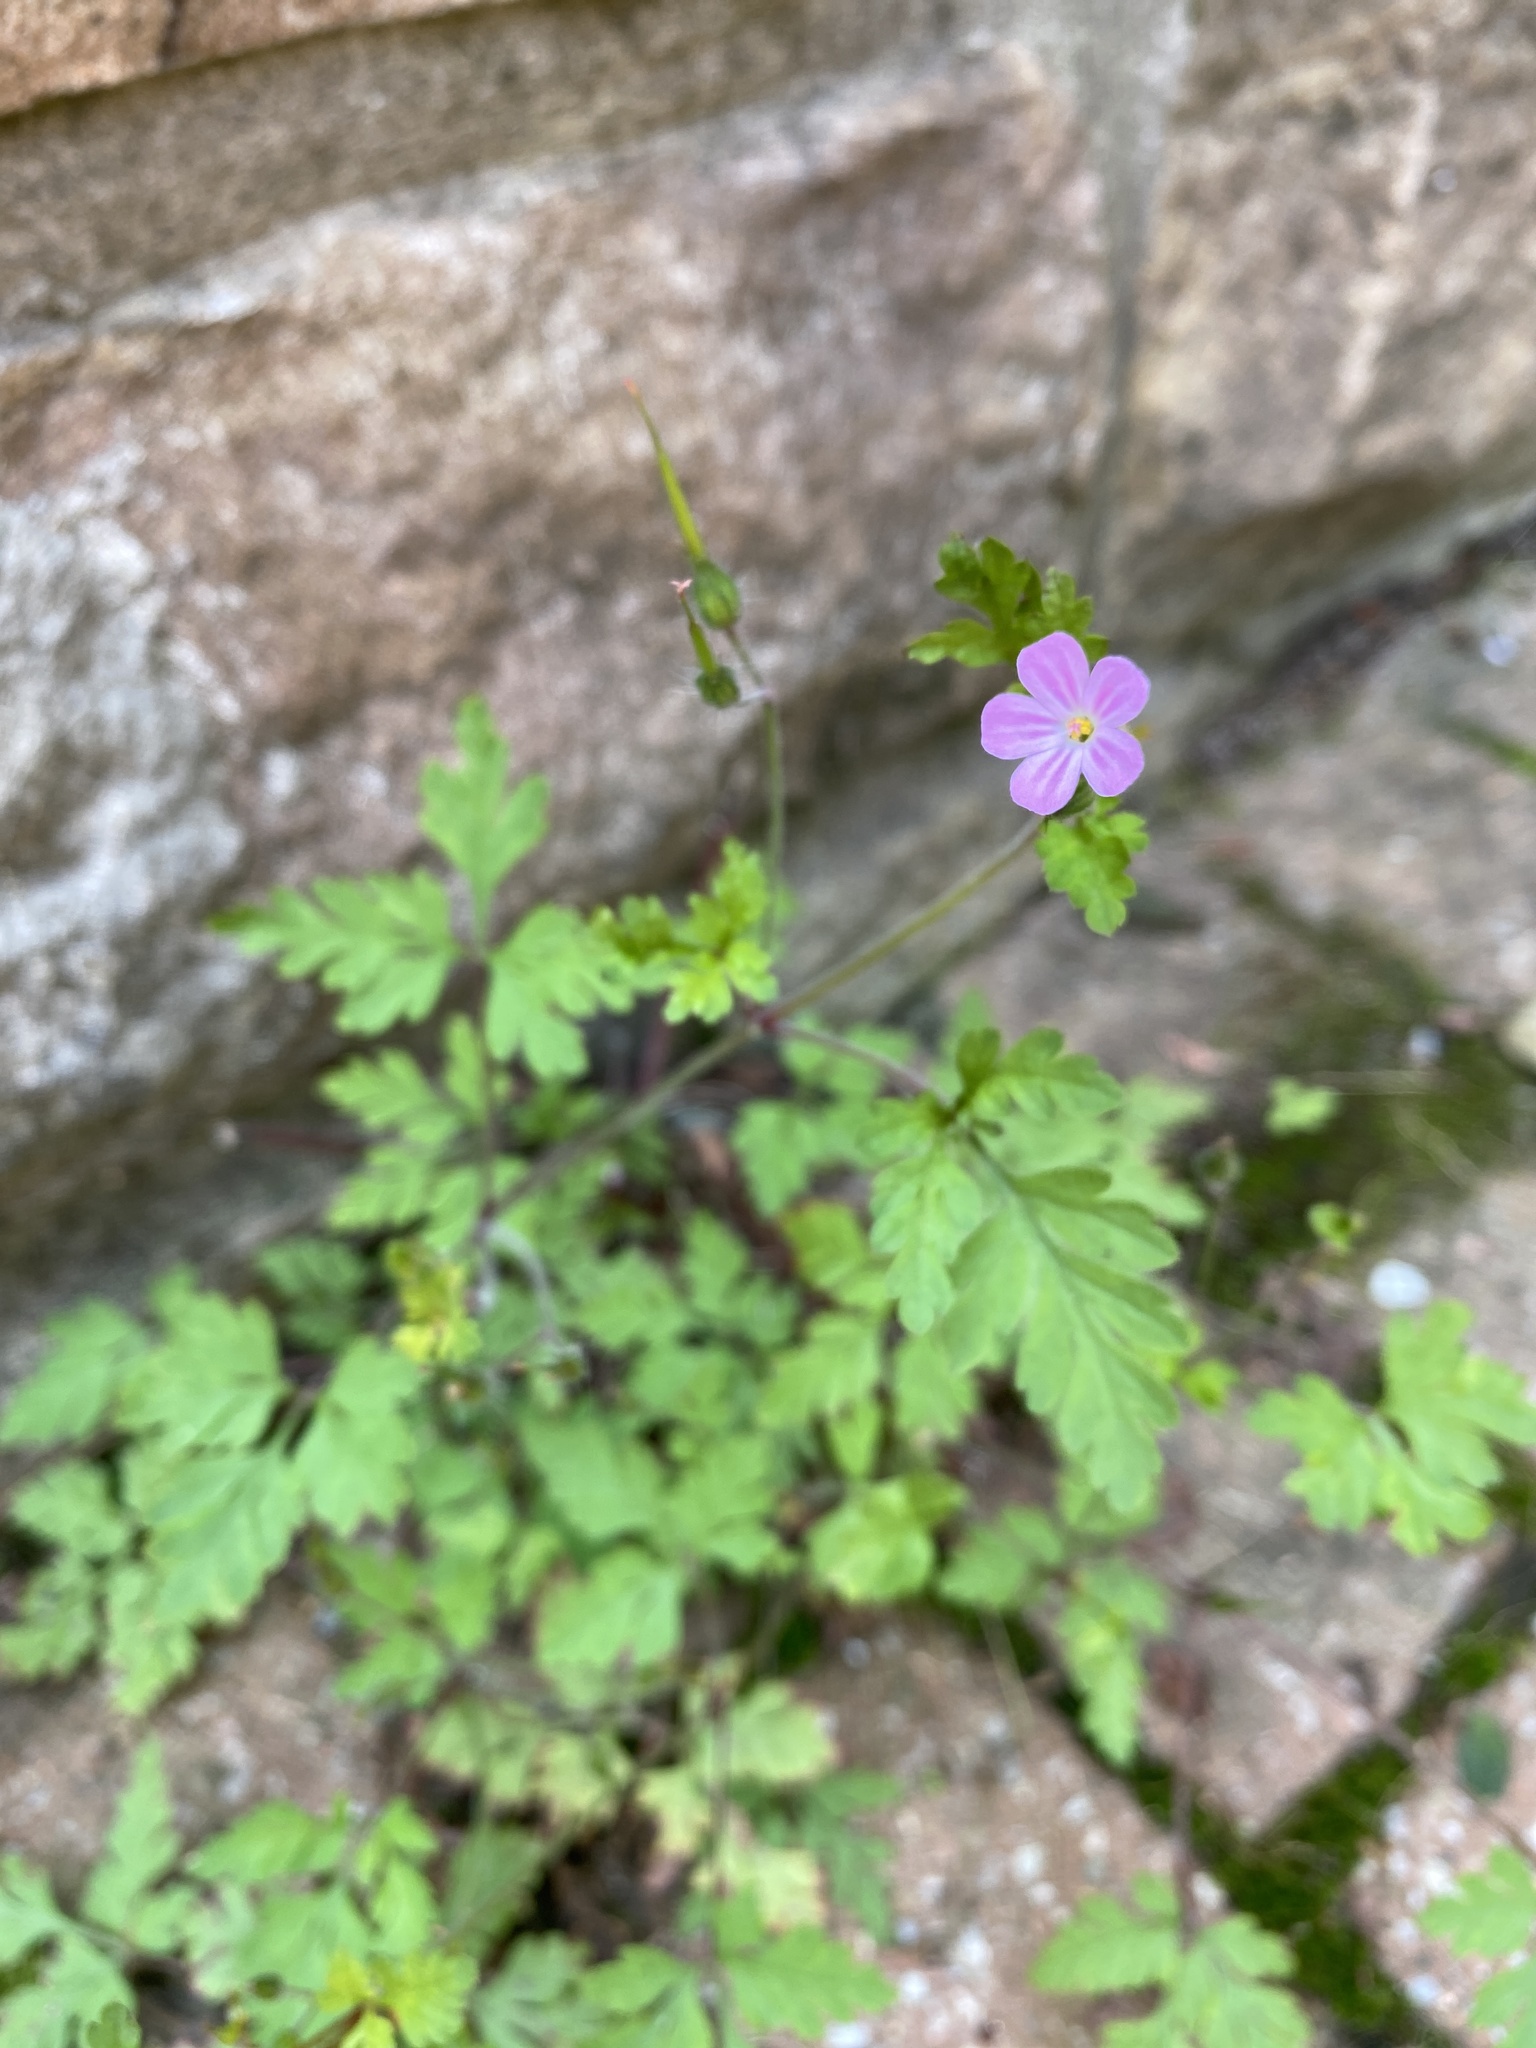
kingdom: Plantae
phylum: Tracheophyta
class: Magnoliopsida
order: Geraniales
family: Geraniaceae
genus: Geranium
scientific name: Geranium robertianum
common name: Herb-robert
